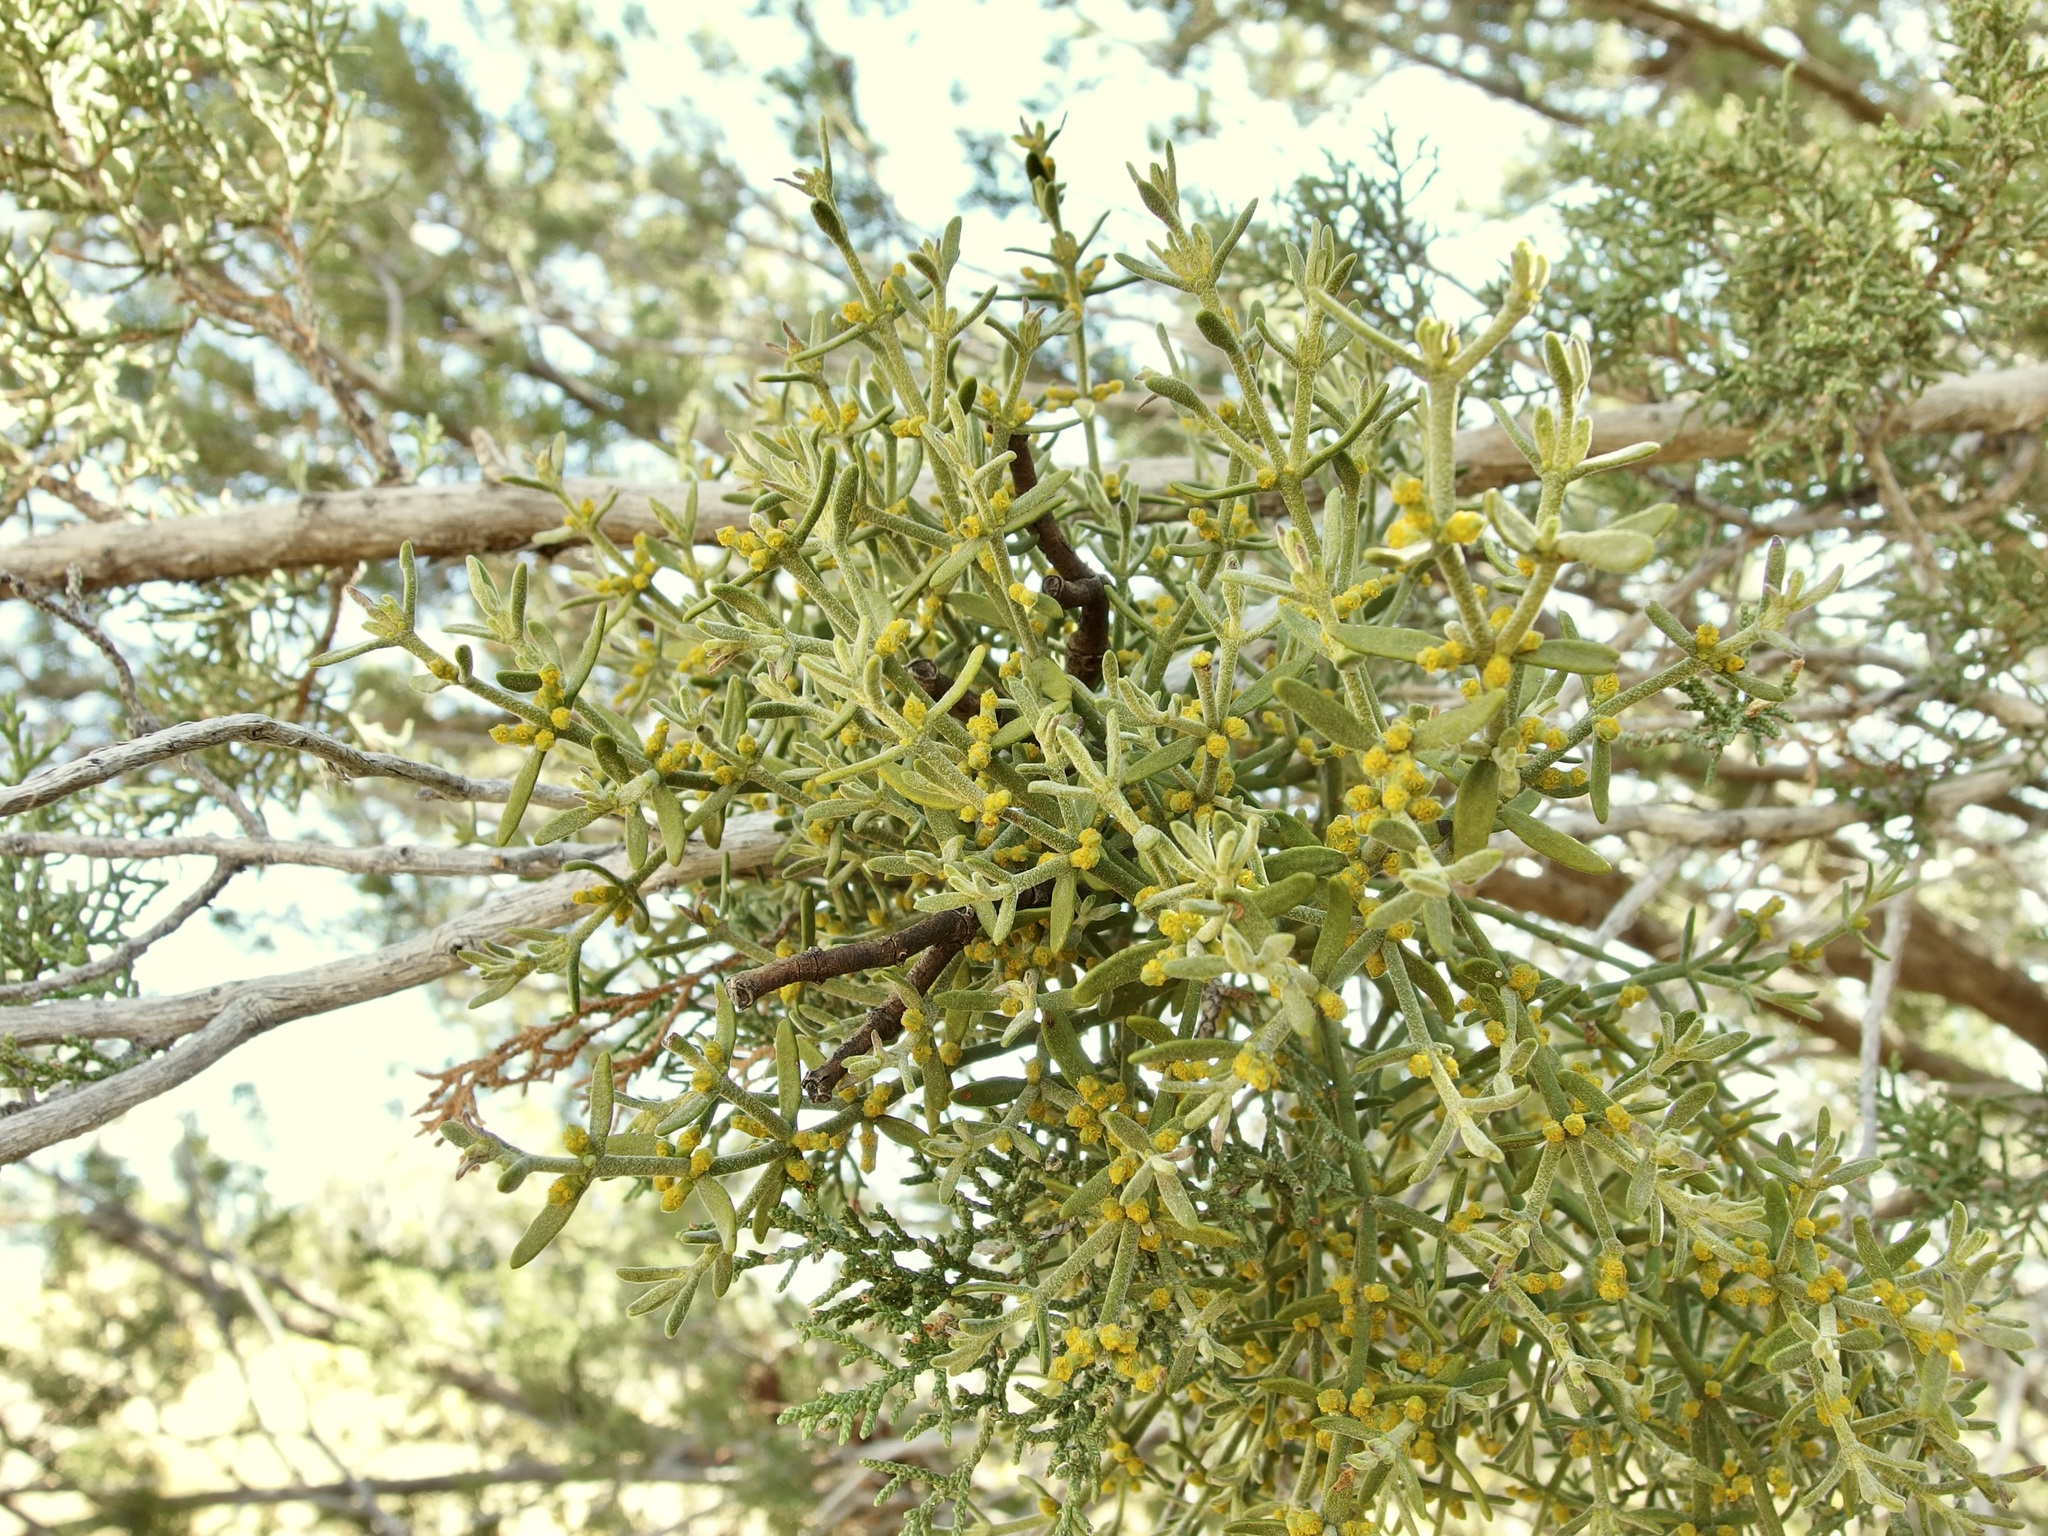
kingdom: Plantae
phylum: Tracheophyta
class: Magnoliopsida
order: Santalales
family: Viscaceae
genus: Phoradendron
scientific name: Phoradendron capitellatum
